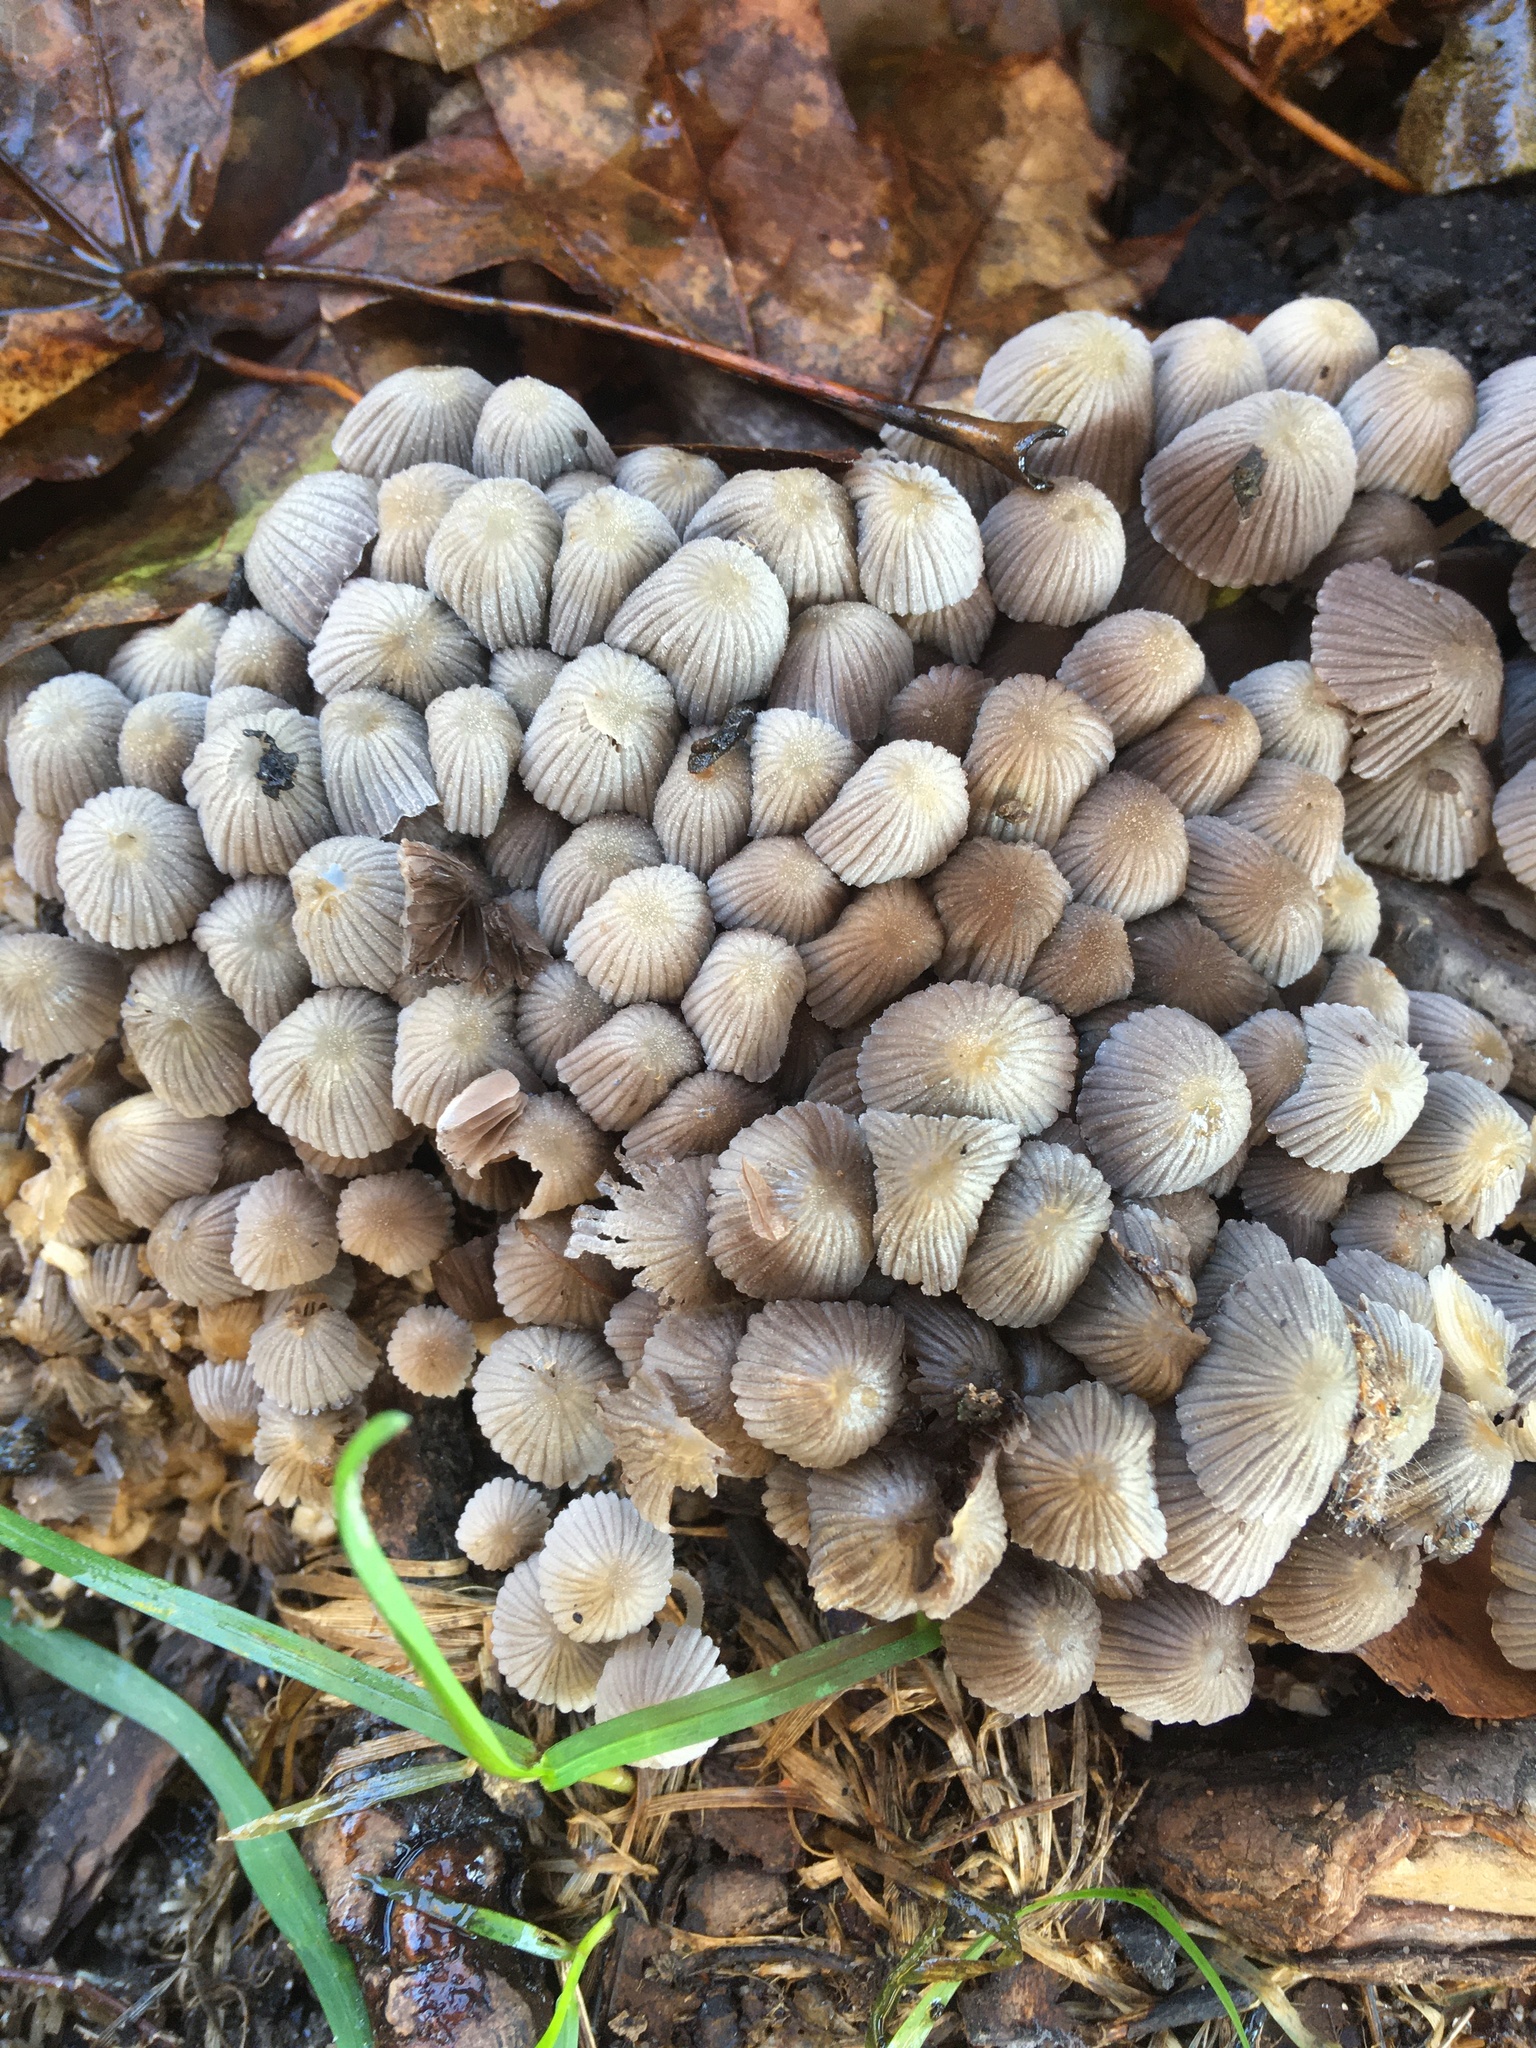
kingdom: Fungi
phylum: Basidiomycota
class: Agaricomycetes
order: Agaricales
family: Psathyrellaceae
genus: Coprinellus
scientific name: Coprinellus disseminatus
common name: Fairies' bonnets
